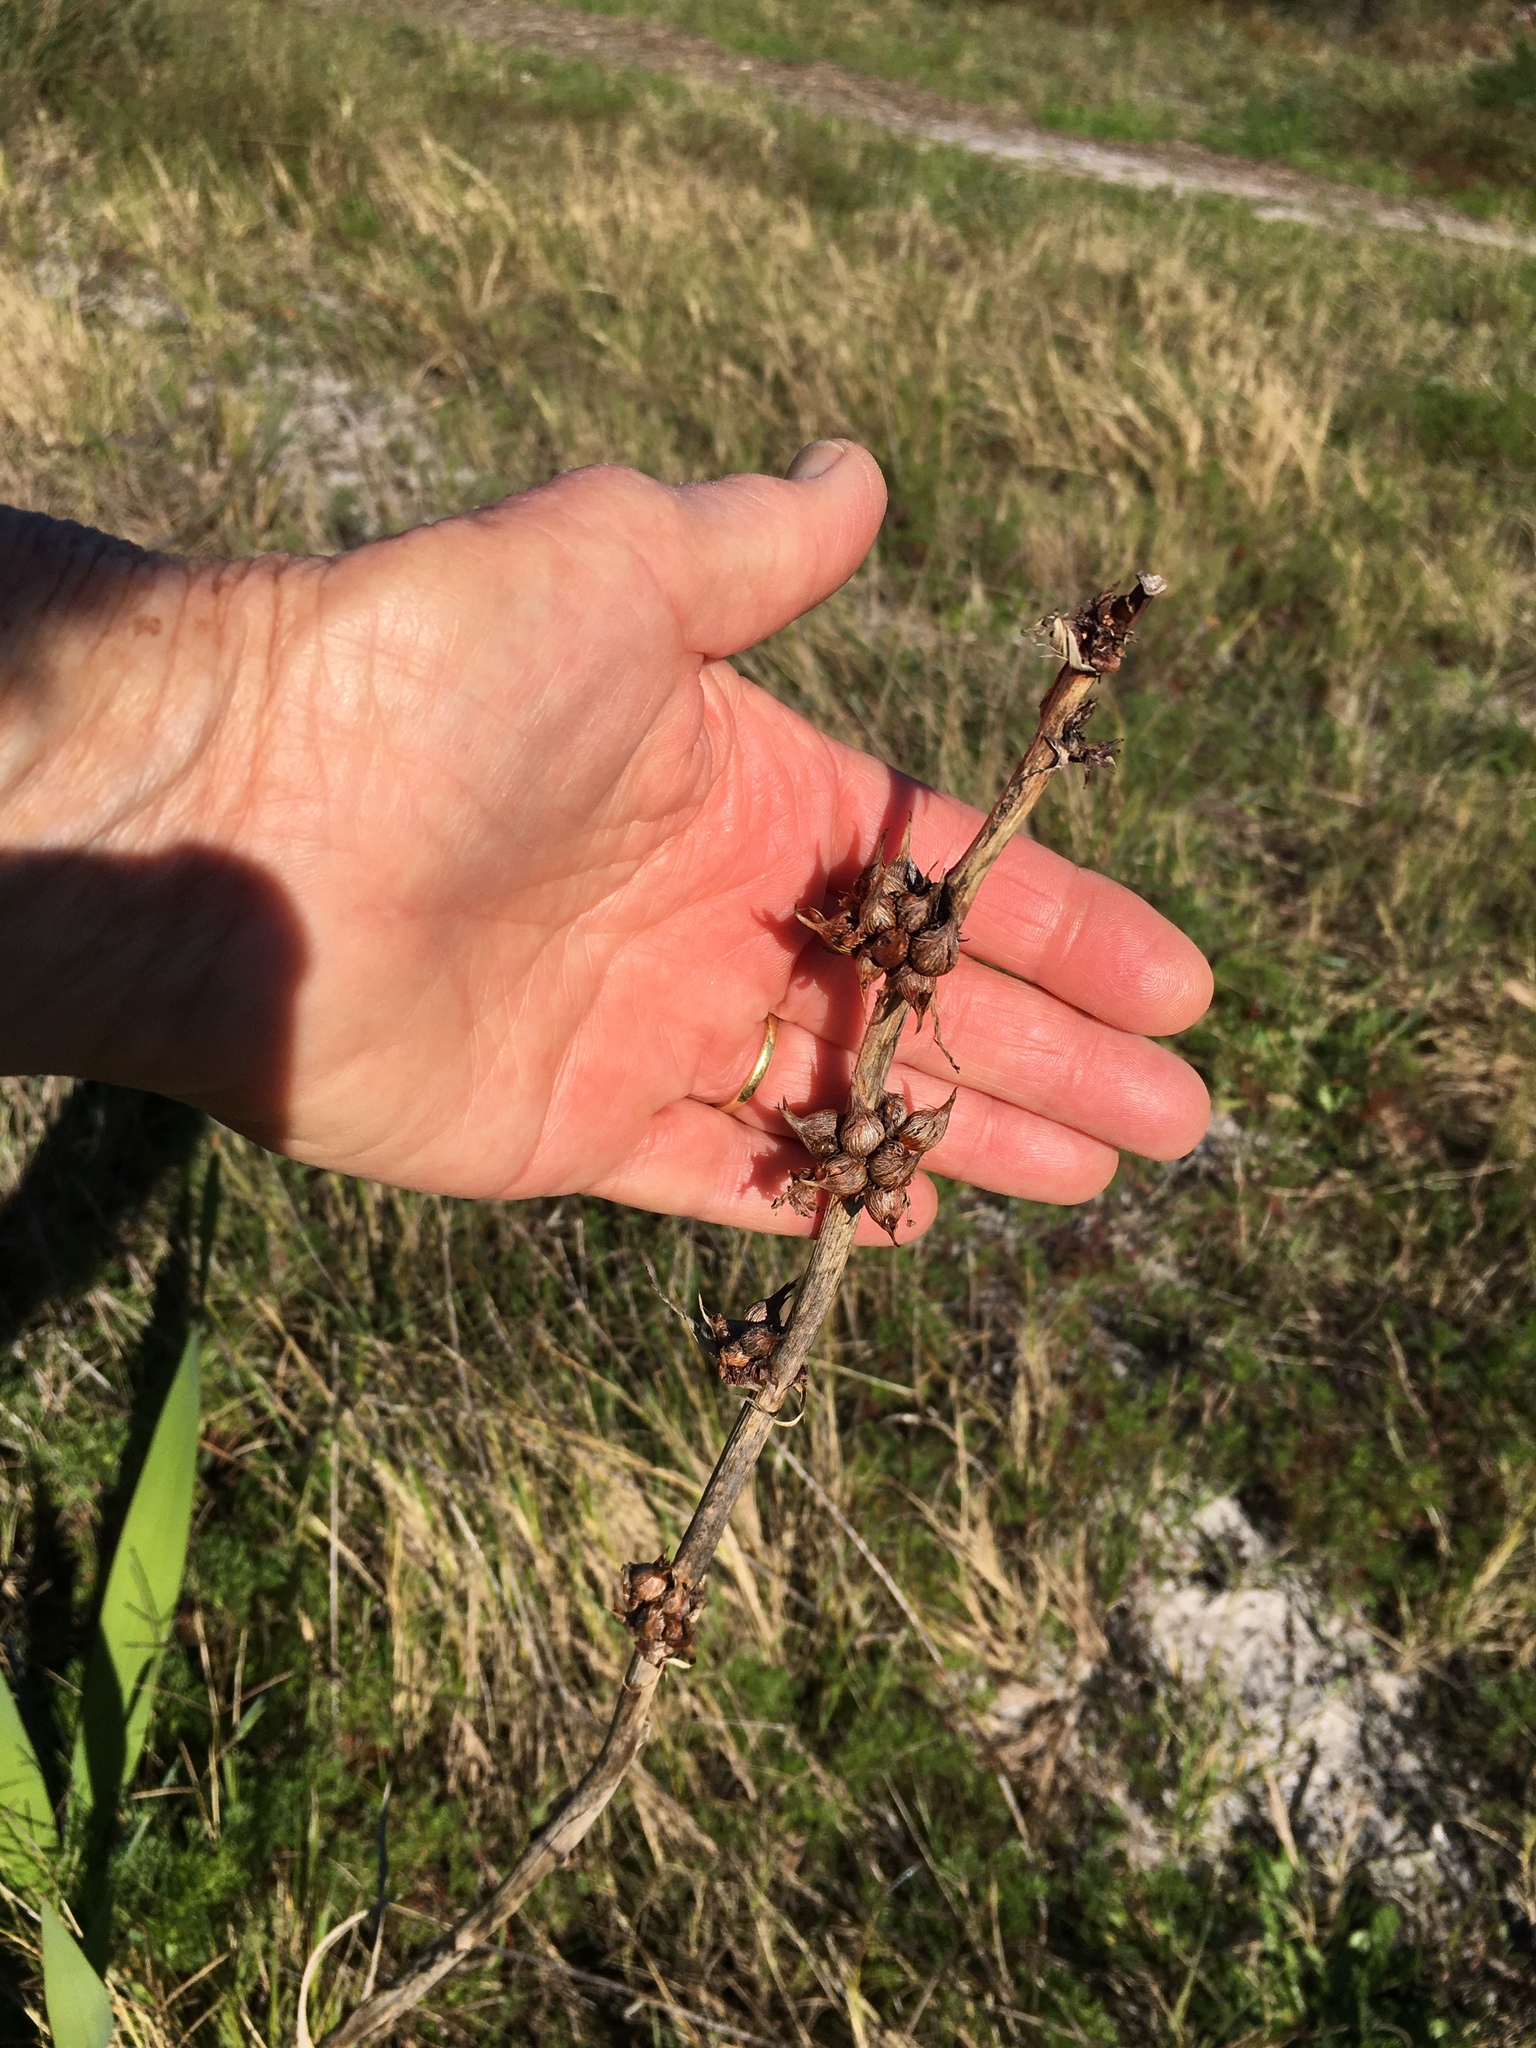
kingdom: Plantae
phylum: Tracheophyta
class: Liliopsida
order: Asparagales
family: Iridaceae
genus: Watsonia
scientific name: Watsonia meriana
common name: Bulbil bugle-lily
